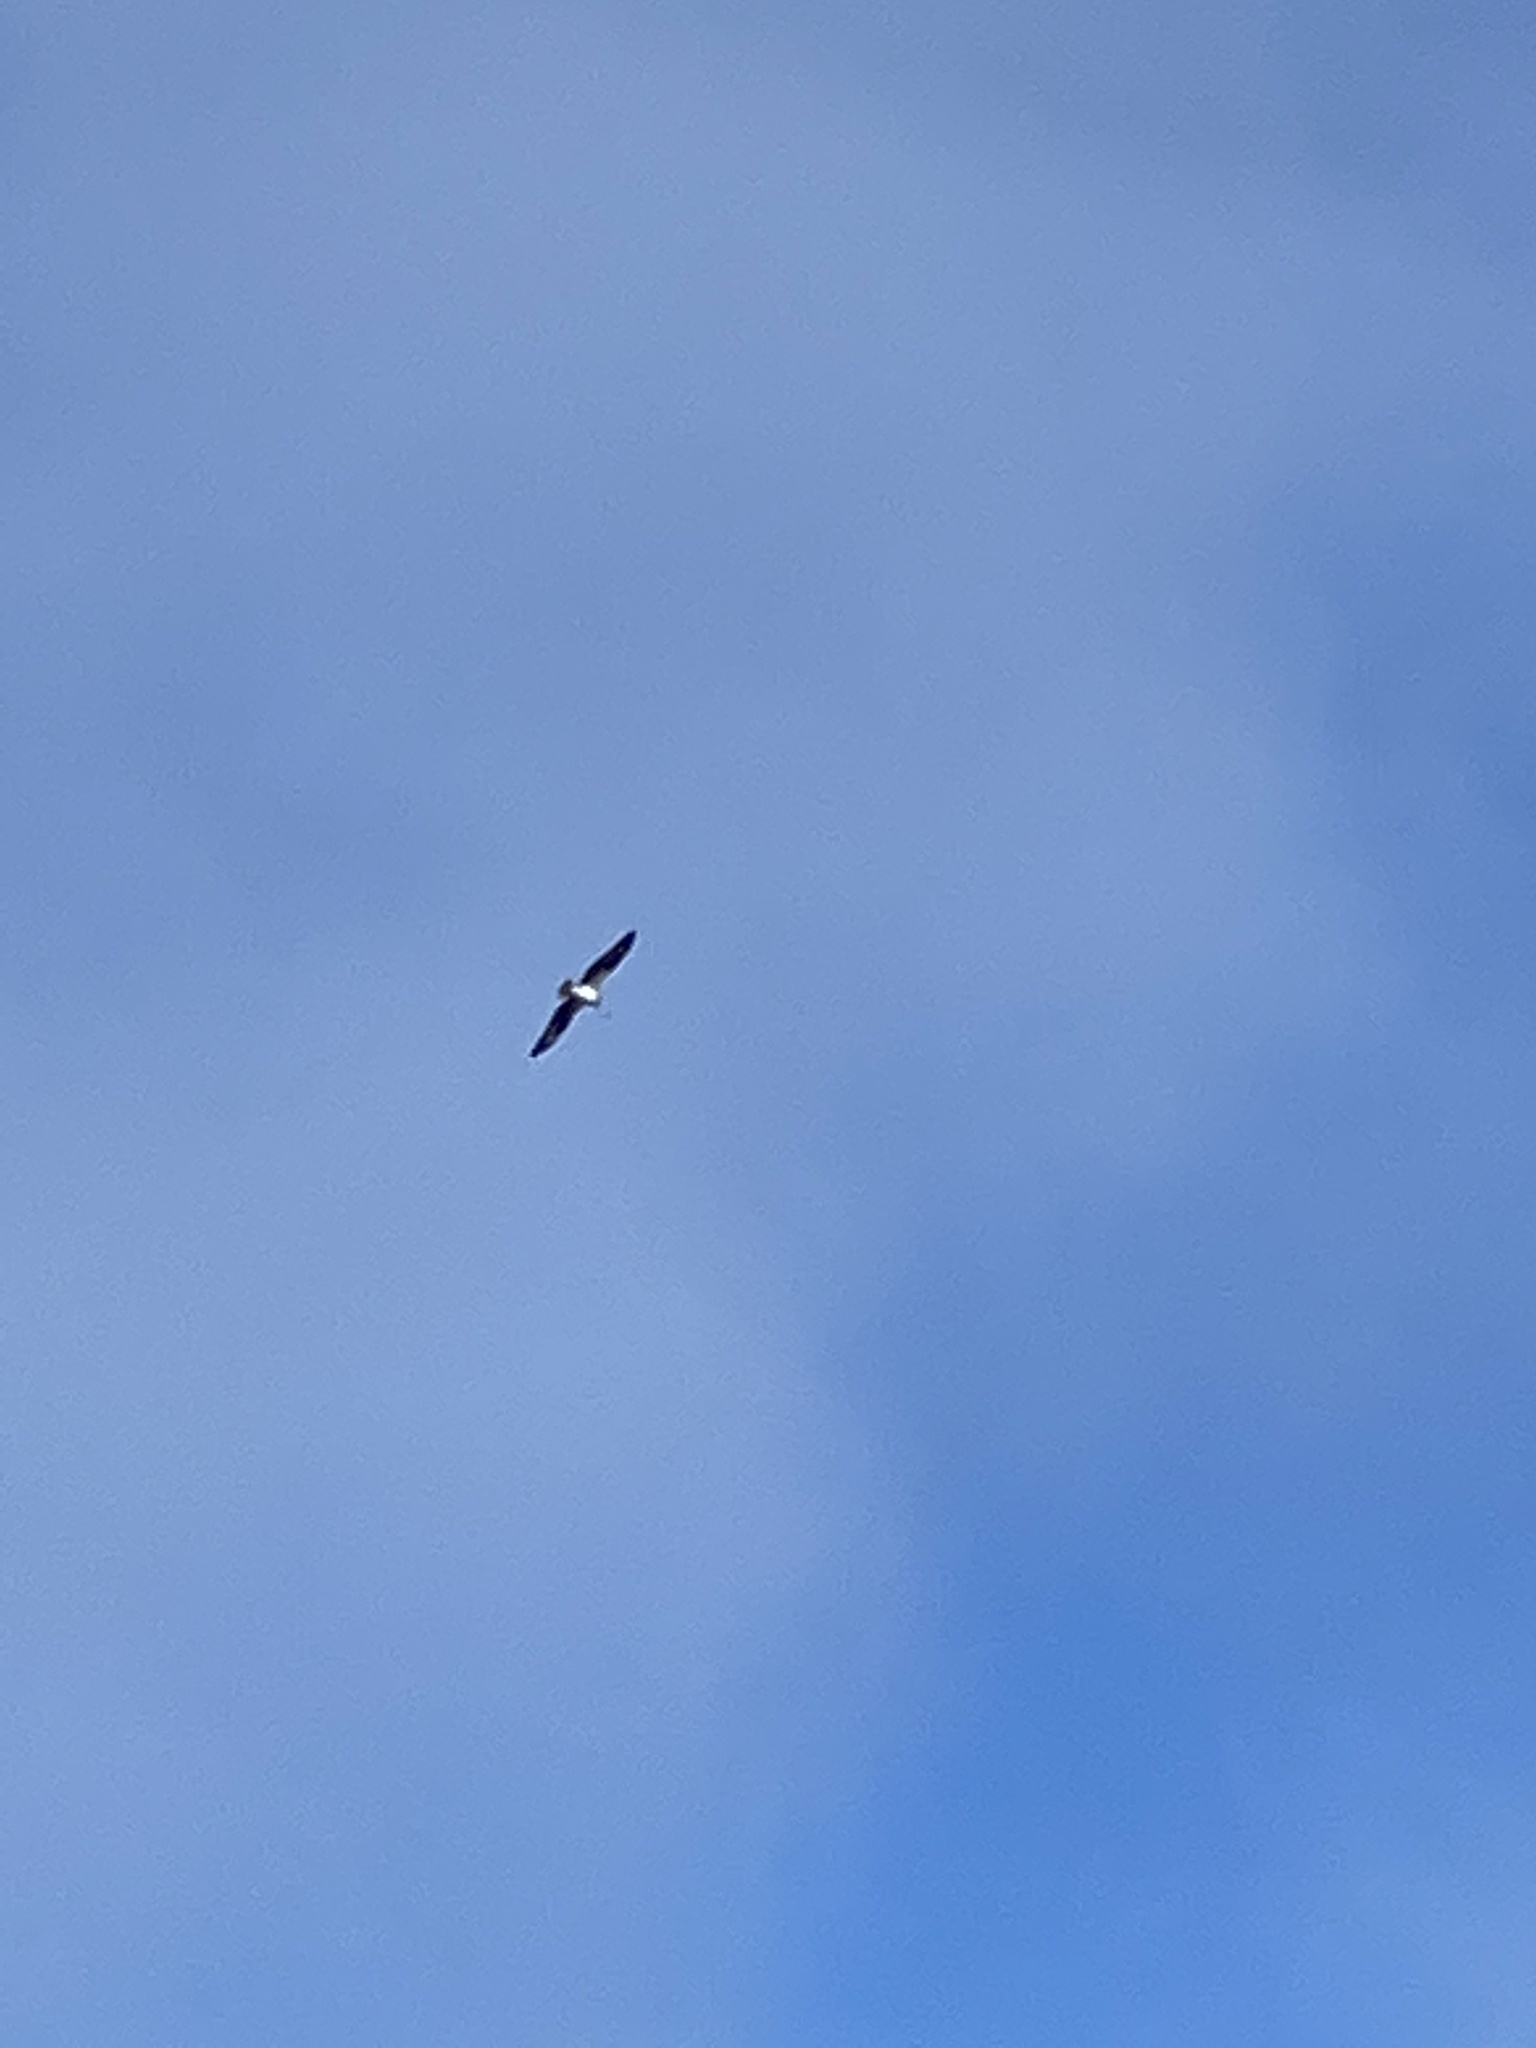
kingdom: Animalia
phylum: Chordata
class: Aves
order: Accipitriformes
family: Pandionidae
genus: Pandion
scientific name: Pandion haliaetus
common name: Osprey
